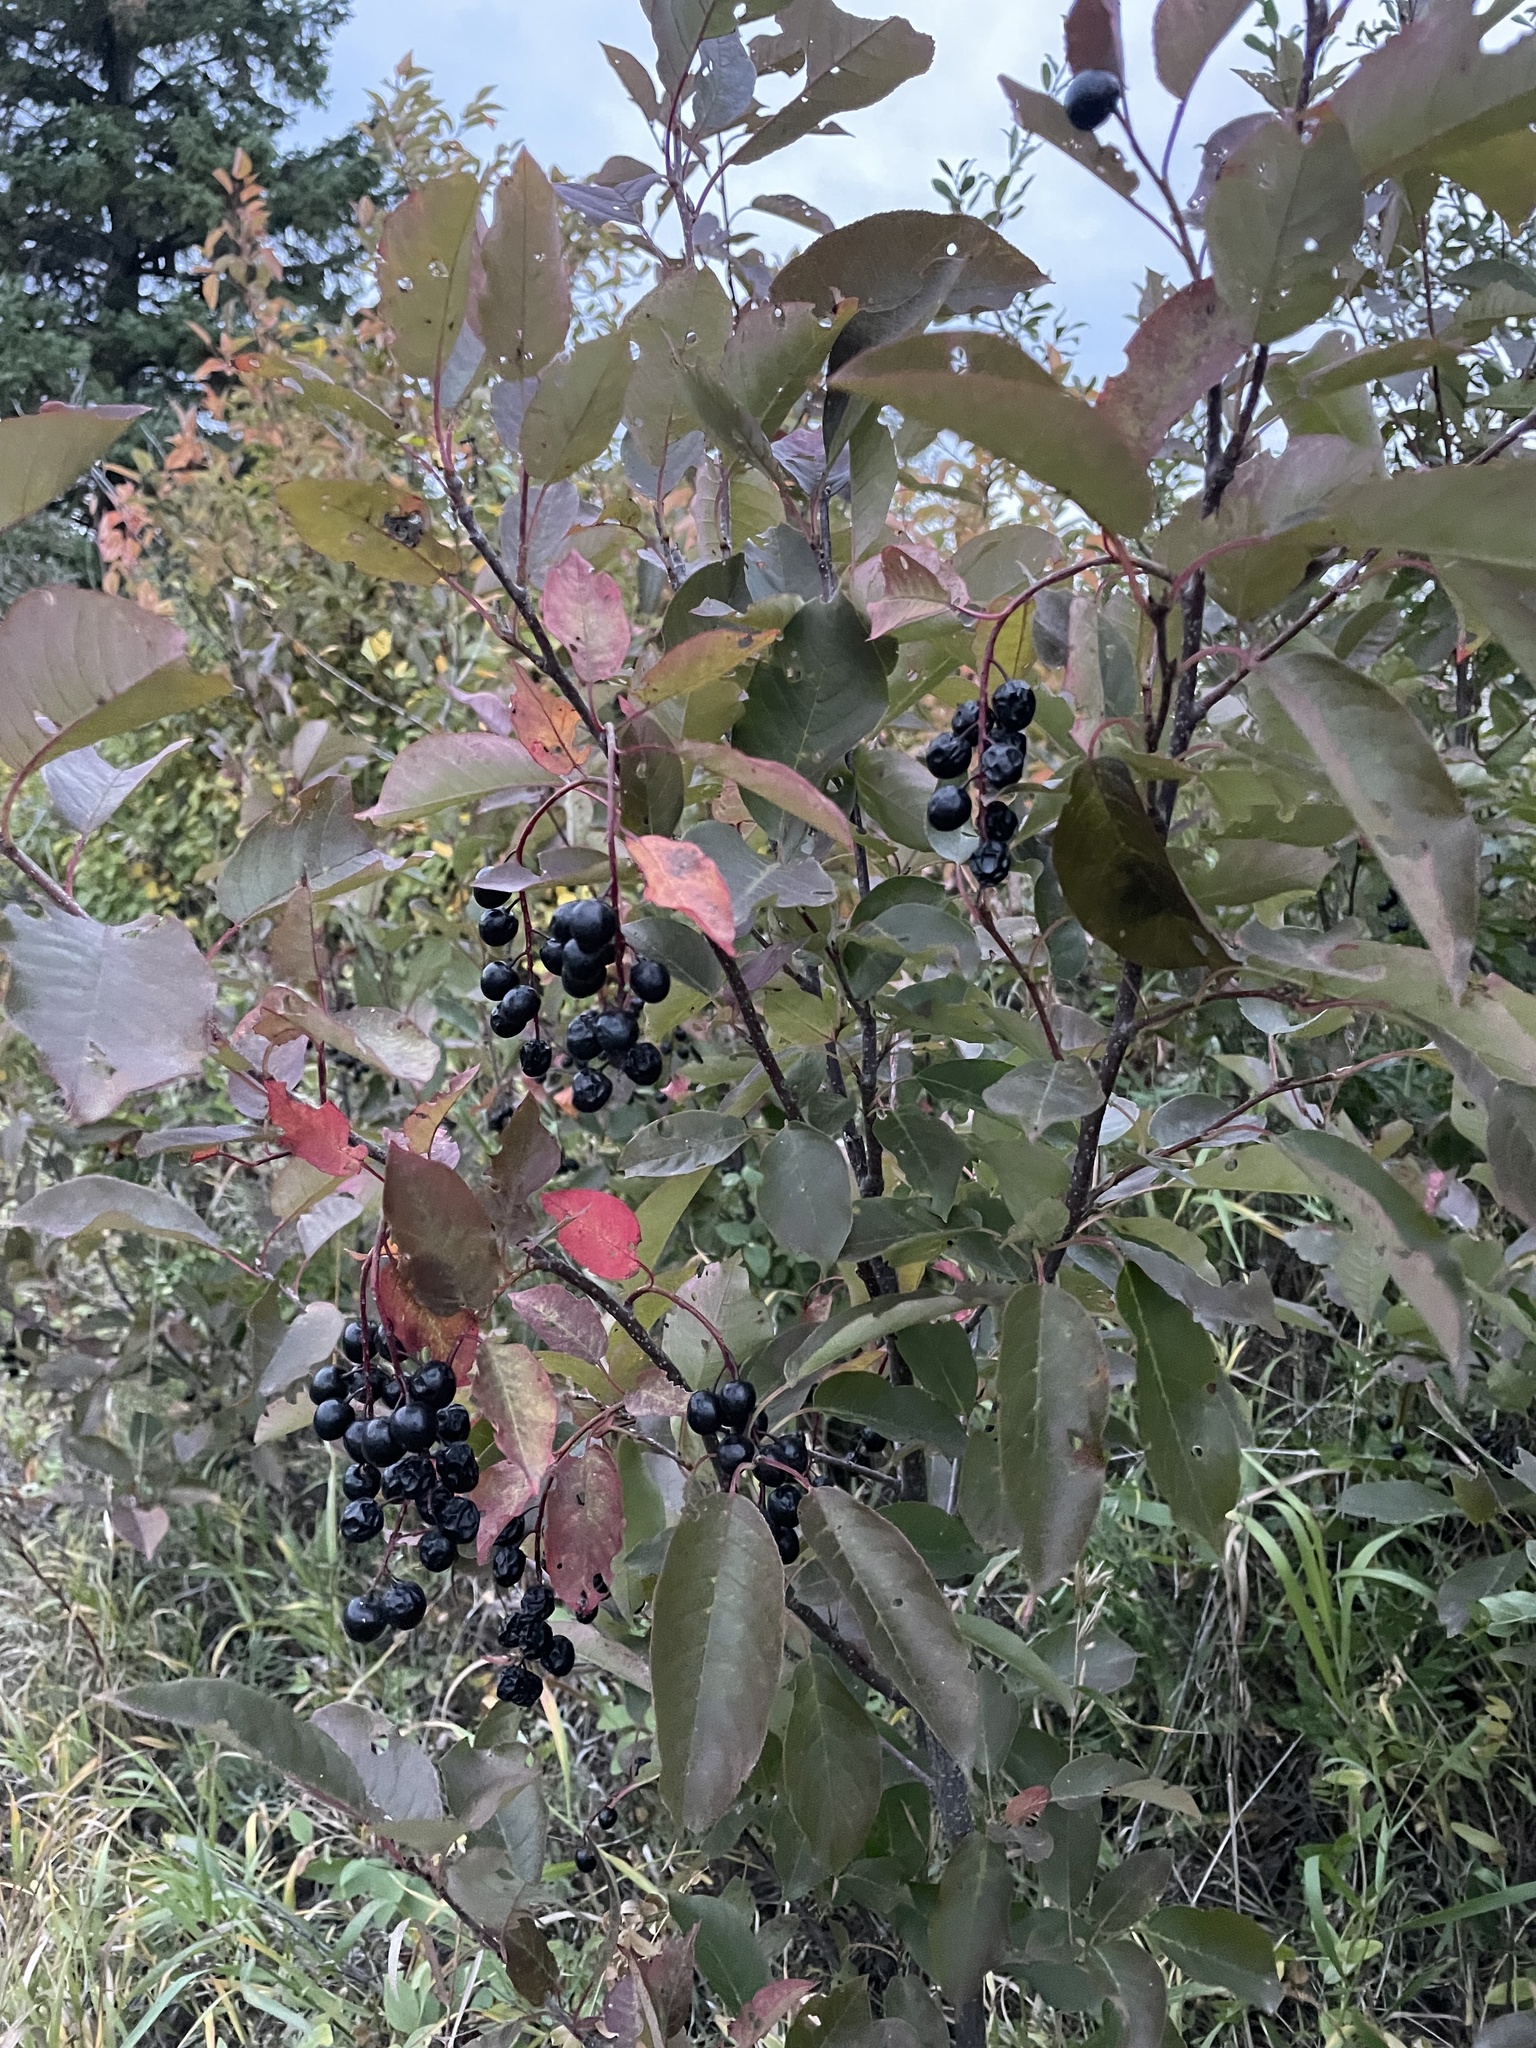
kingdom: Plantae
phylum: Tracheophyta
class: Magnoliopsida
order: Rosales
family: Rosaceae
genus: Prunus
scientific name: Prunus virginiana
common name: Chokecherry
